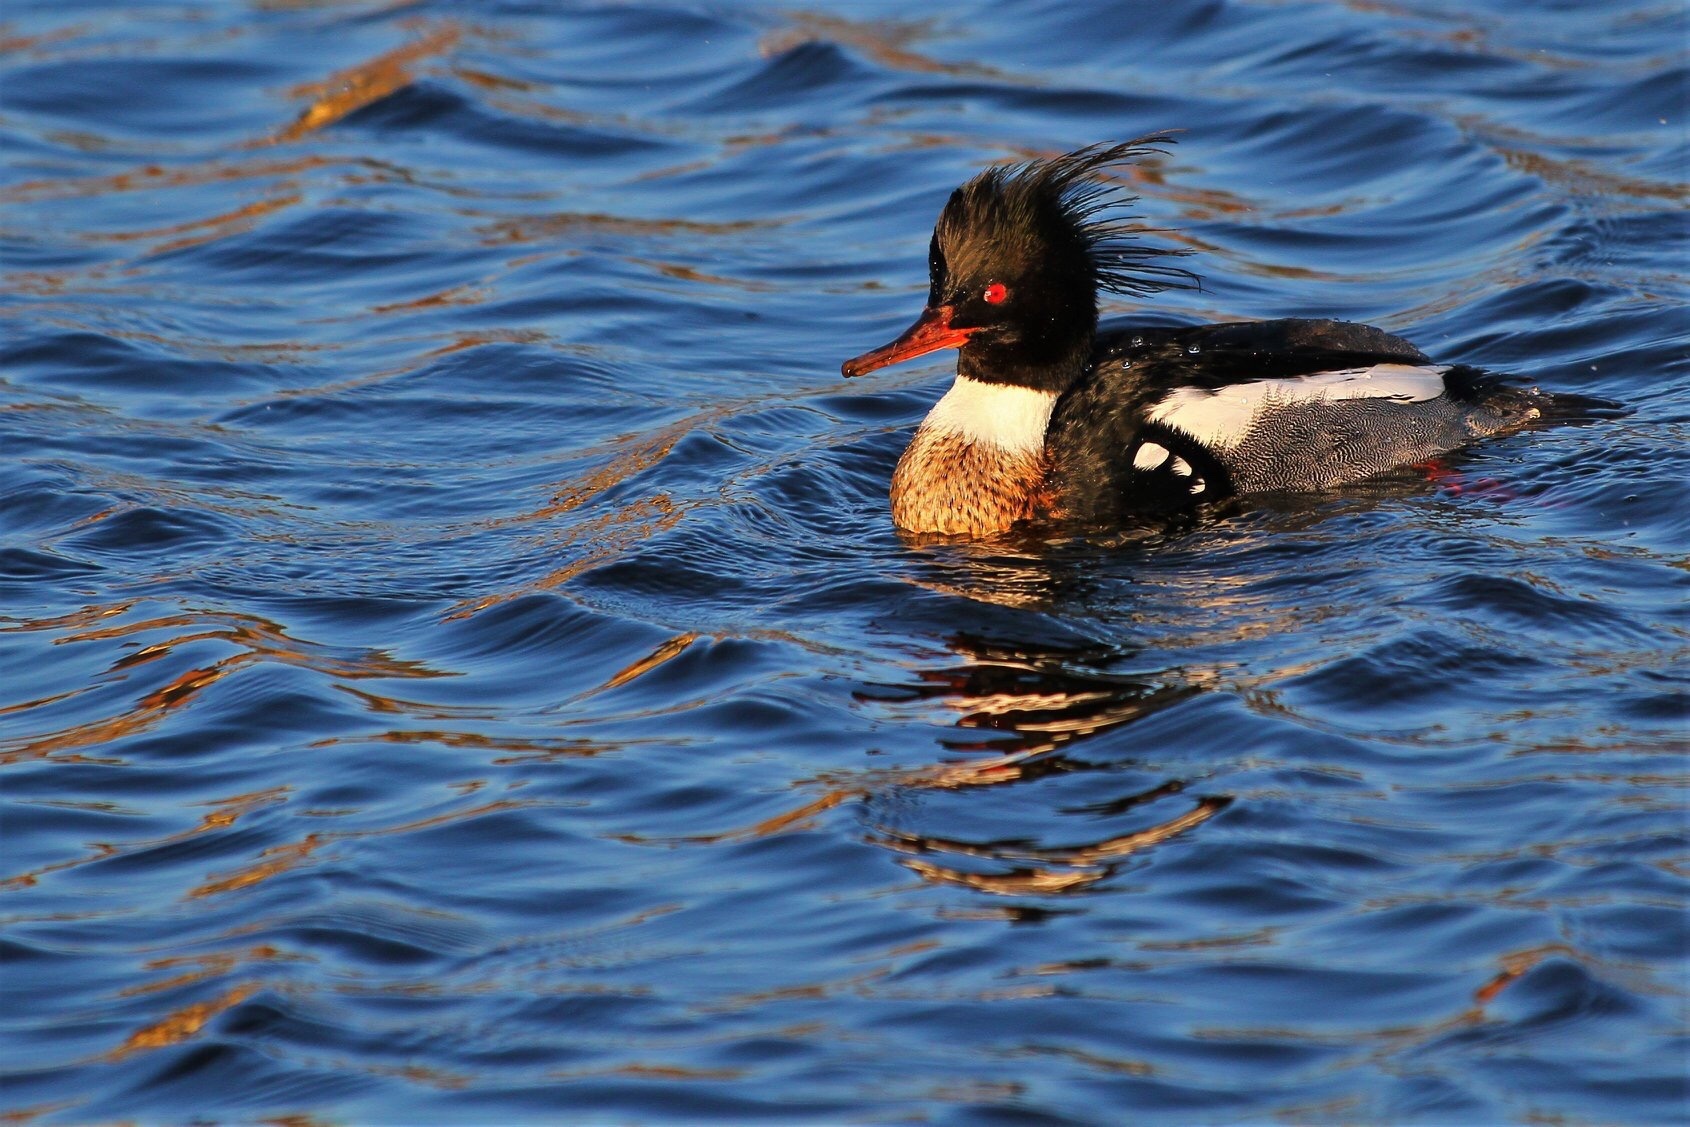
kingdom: Animalia
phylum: Chordata
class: Aves
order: Anseriformes
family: Anatidae
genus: Mergus
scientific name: Mergus serrator
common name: Red-breasted merganser
